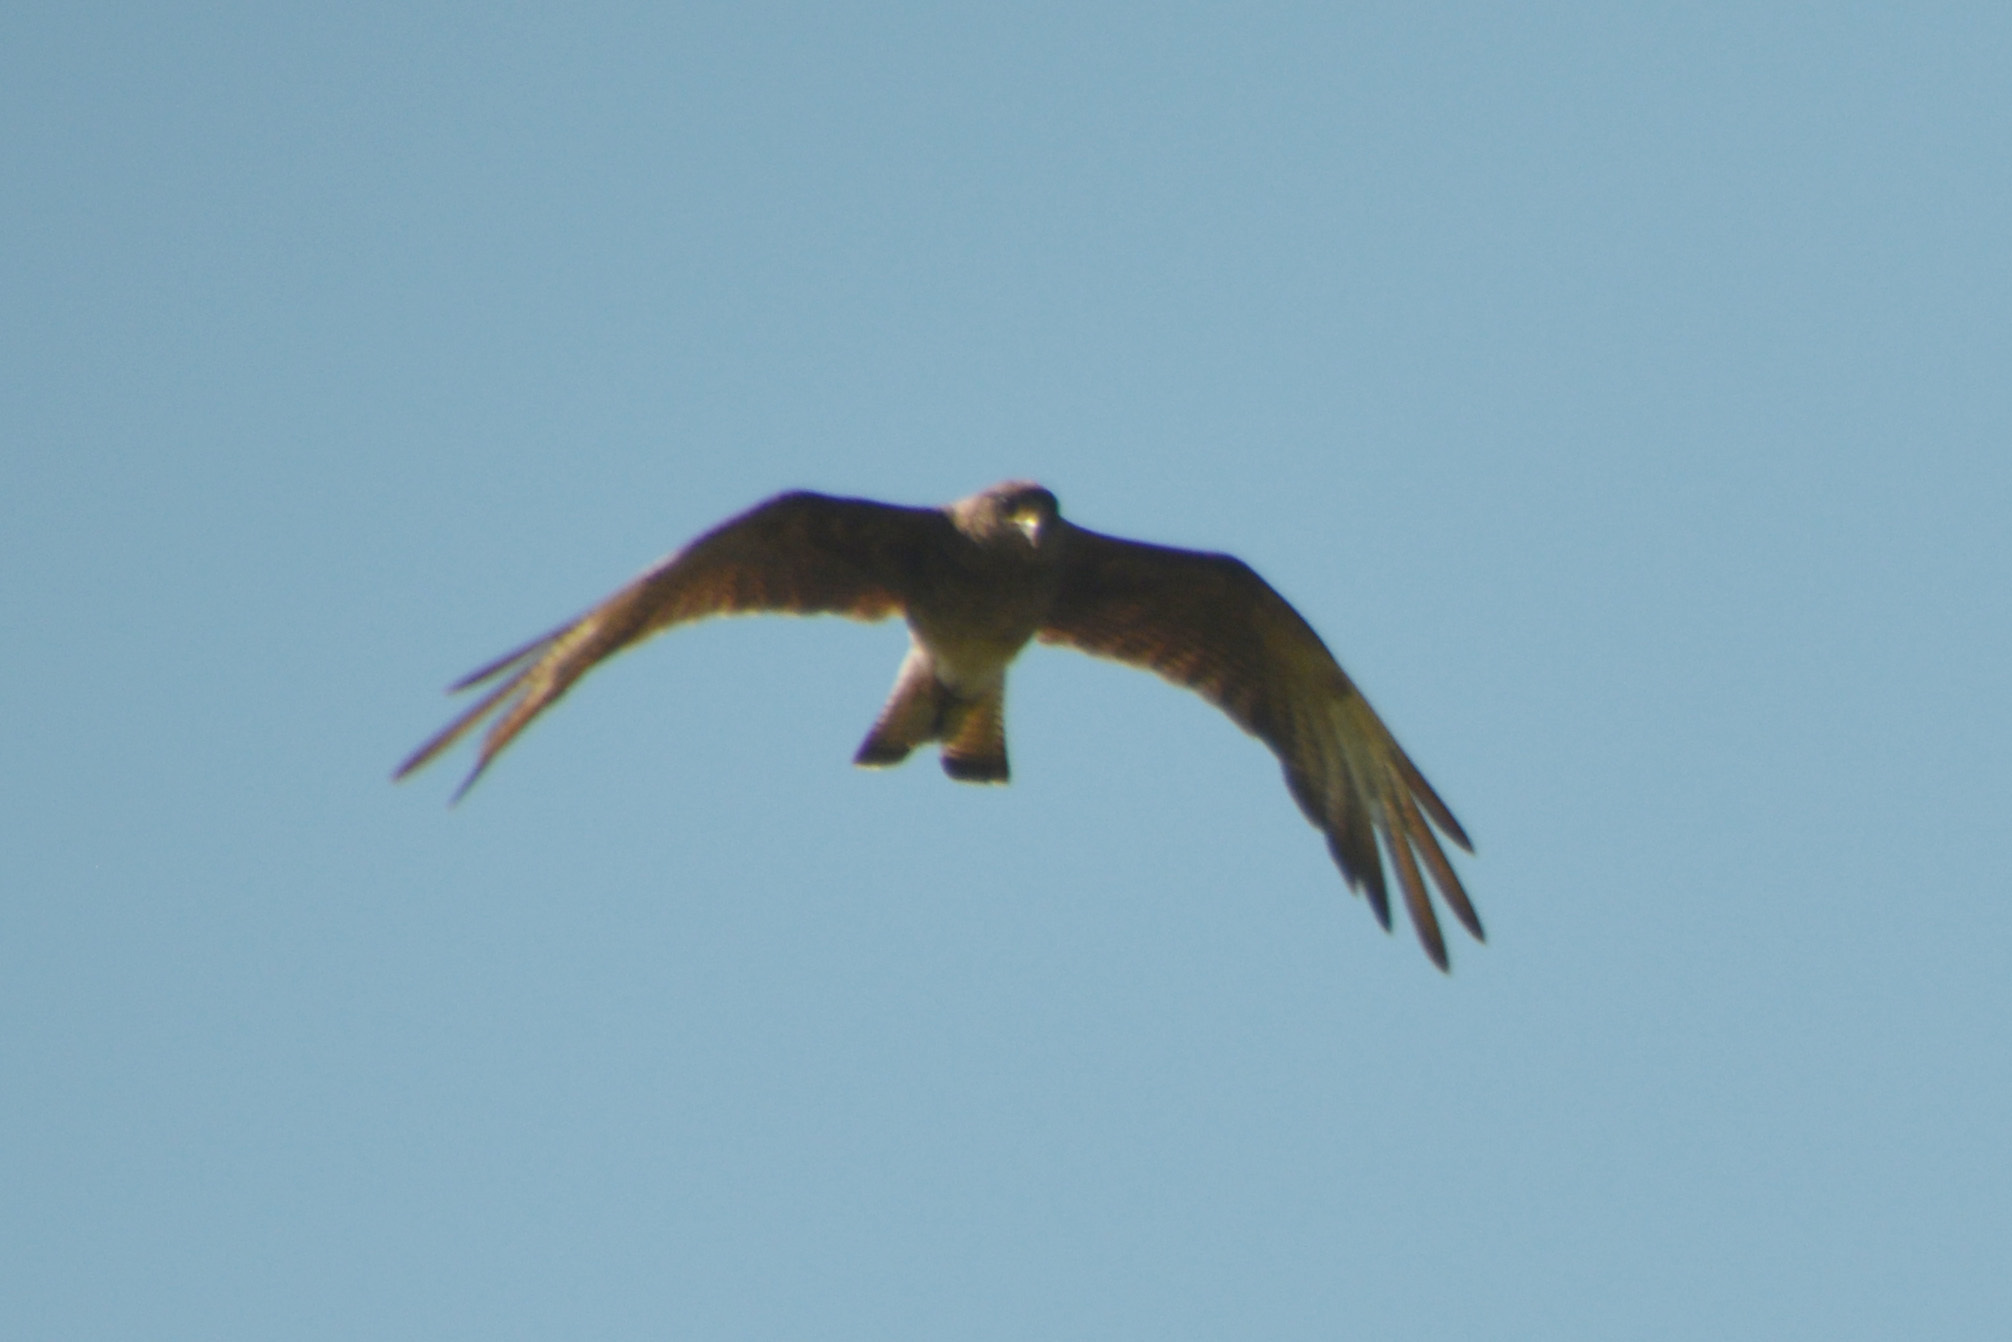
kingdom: Animalia
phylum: Chordata
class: Aves
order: Falconiformes
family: Falconidae
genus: Daptrius
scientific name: Daptrius
